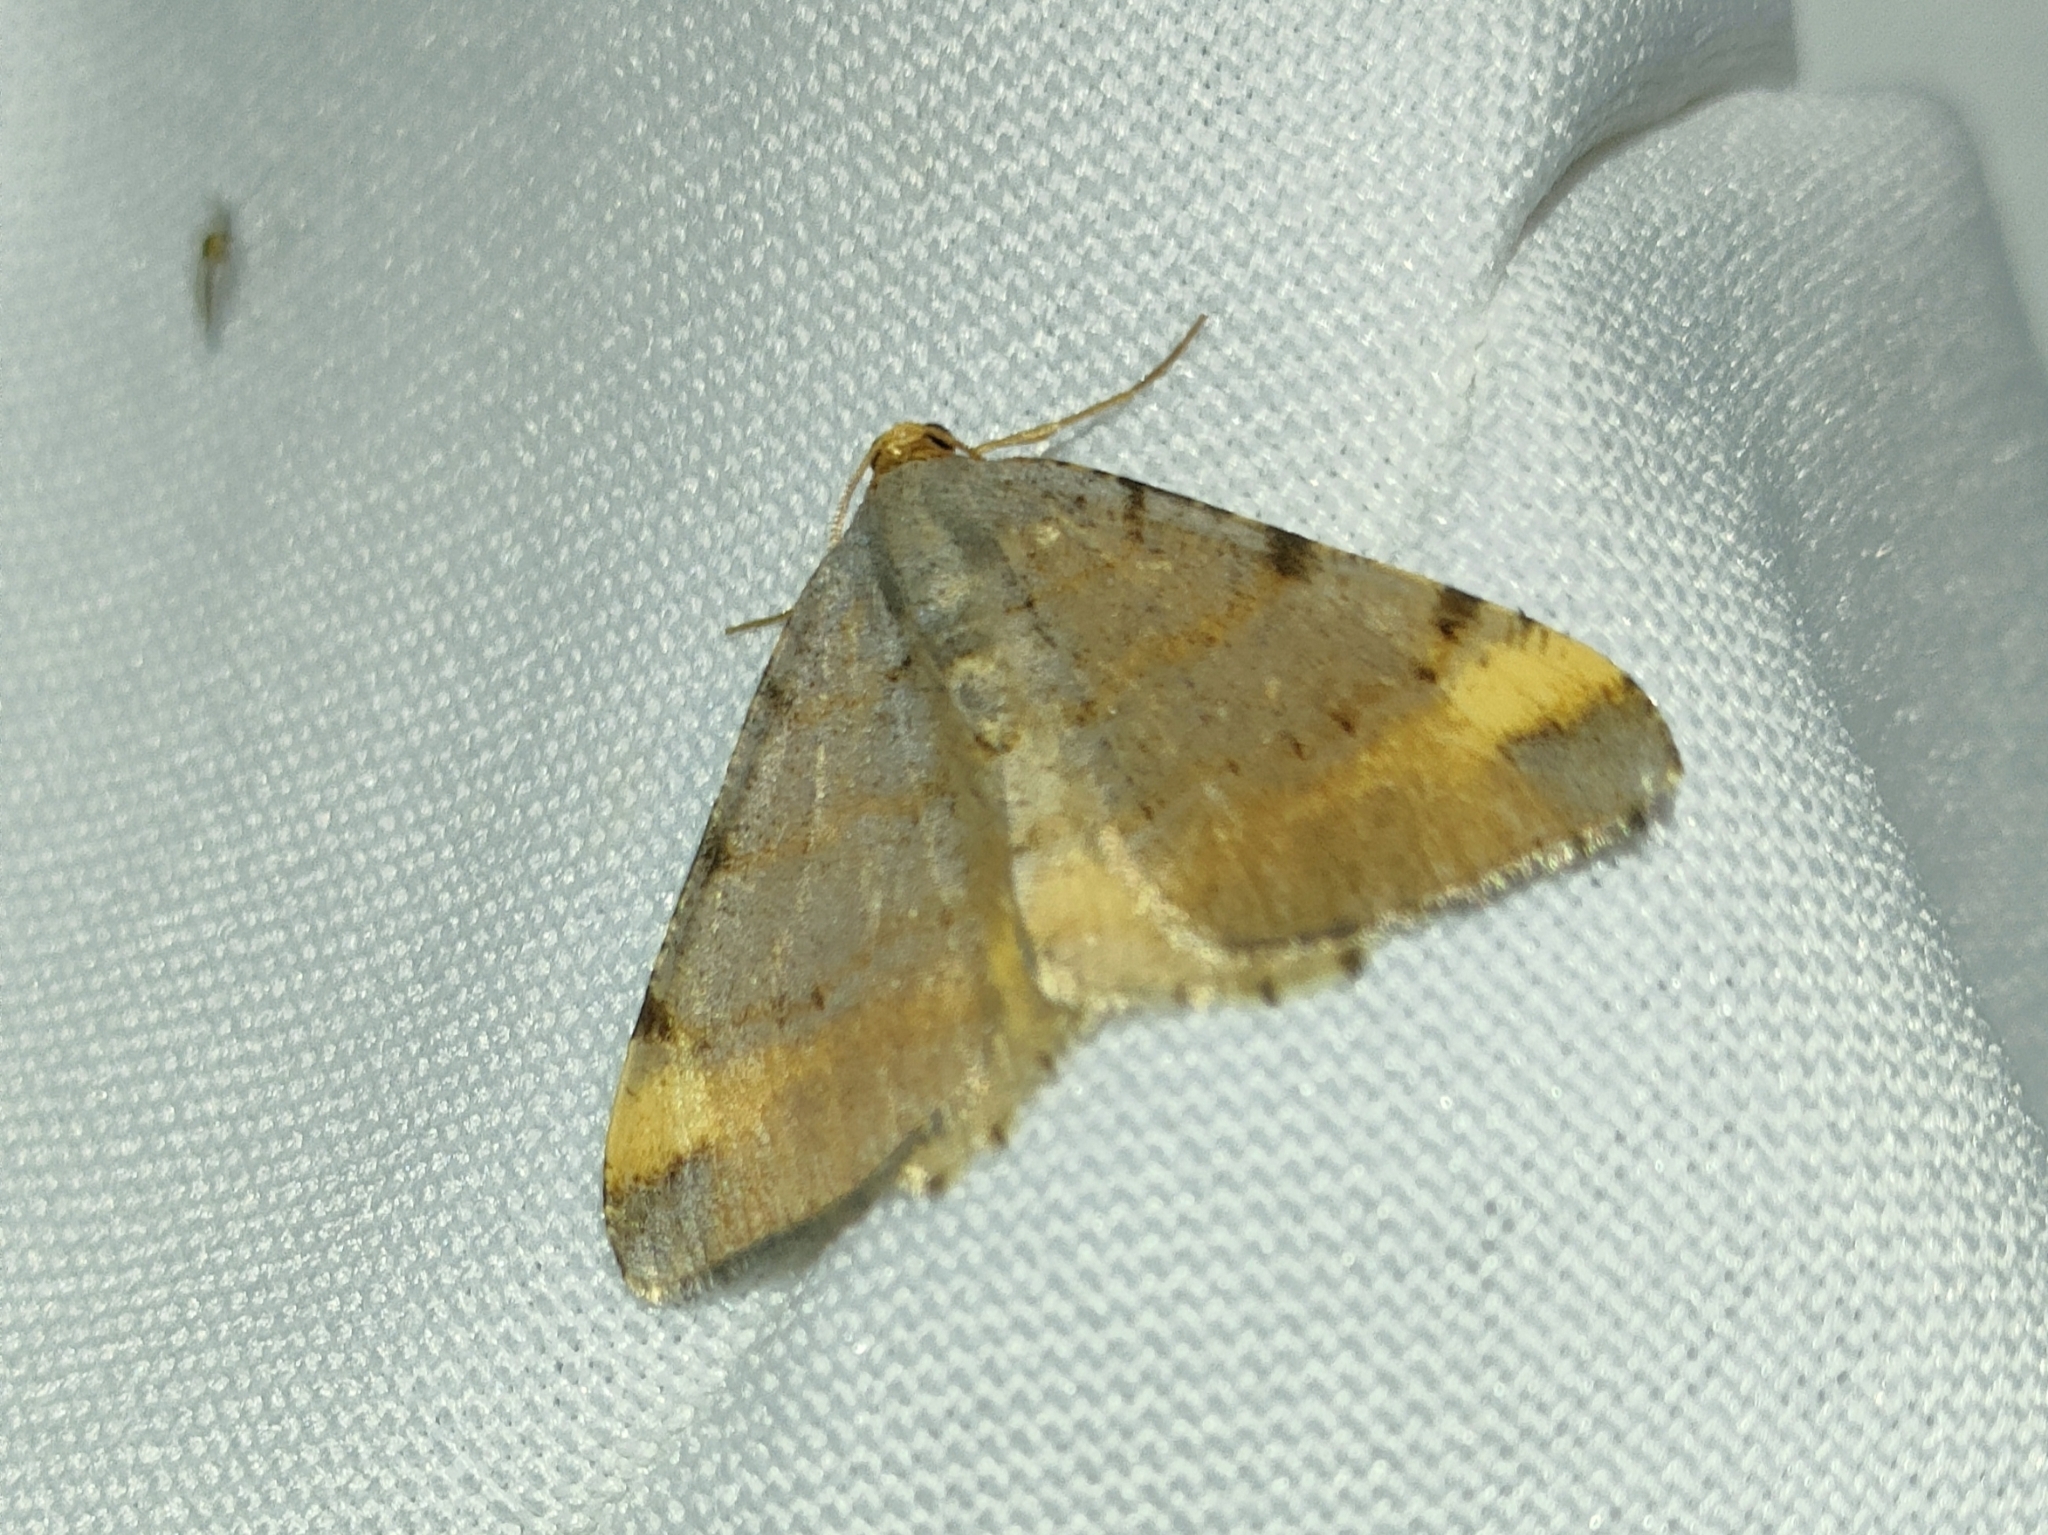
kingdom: Animalia
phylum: Arthropoda
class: Insecta
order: Lepidoptera
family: Geometridae
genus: Macaria
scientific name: Macaria liturata
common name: Tawny-barred angle
